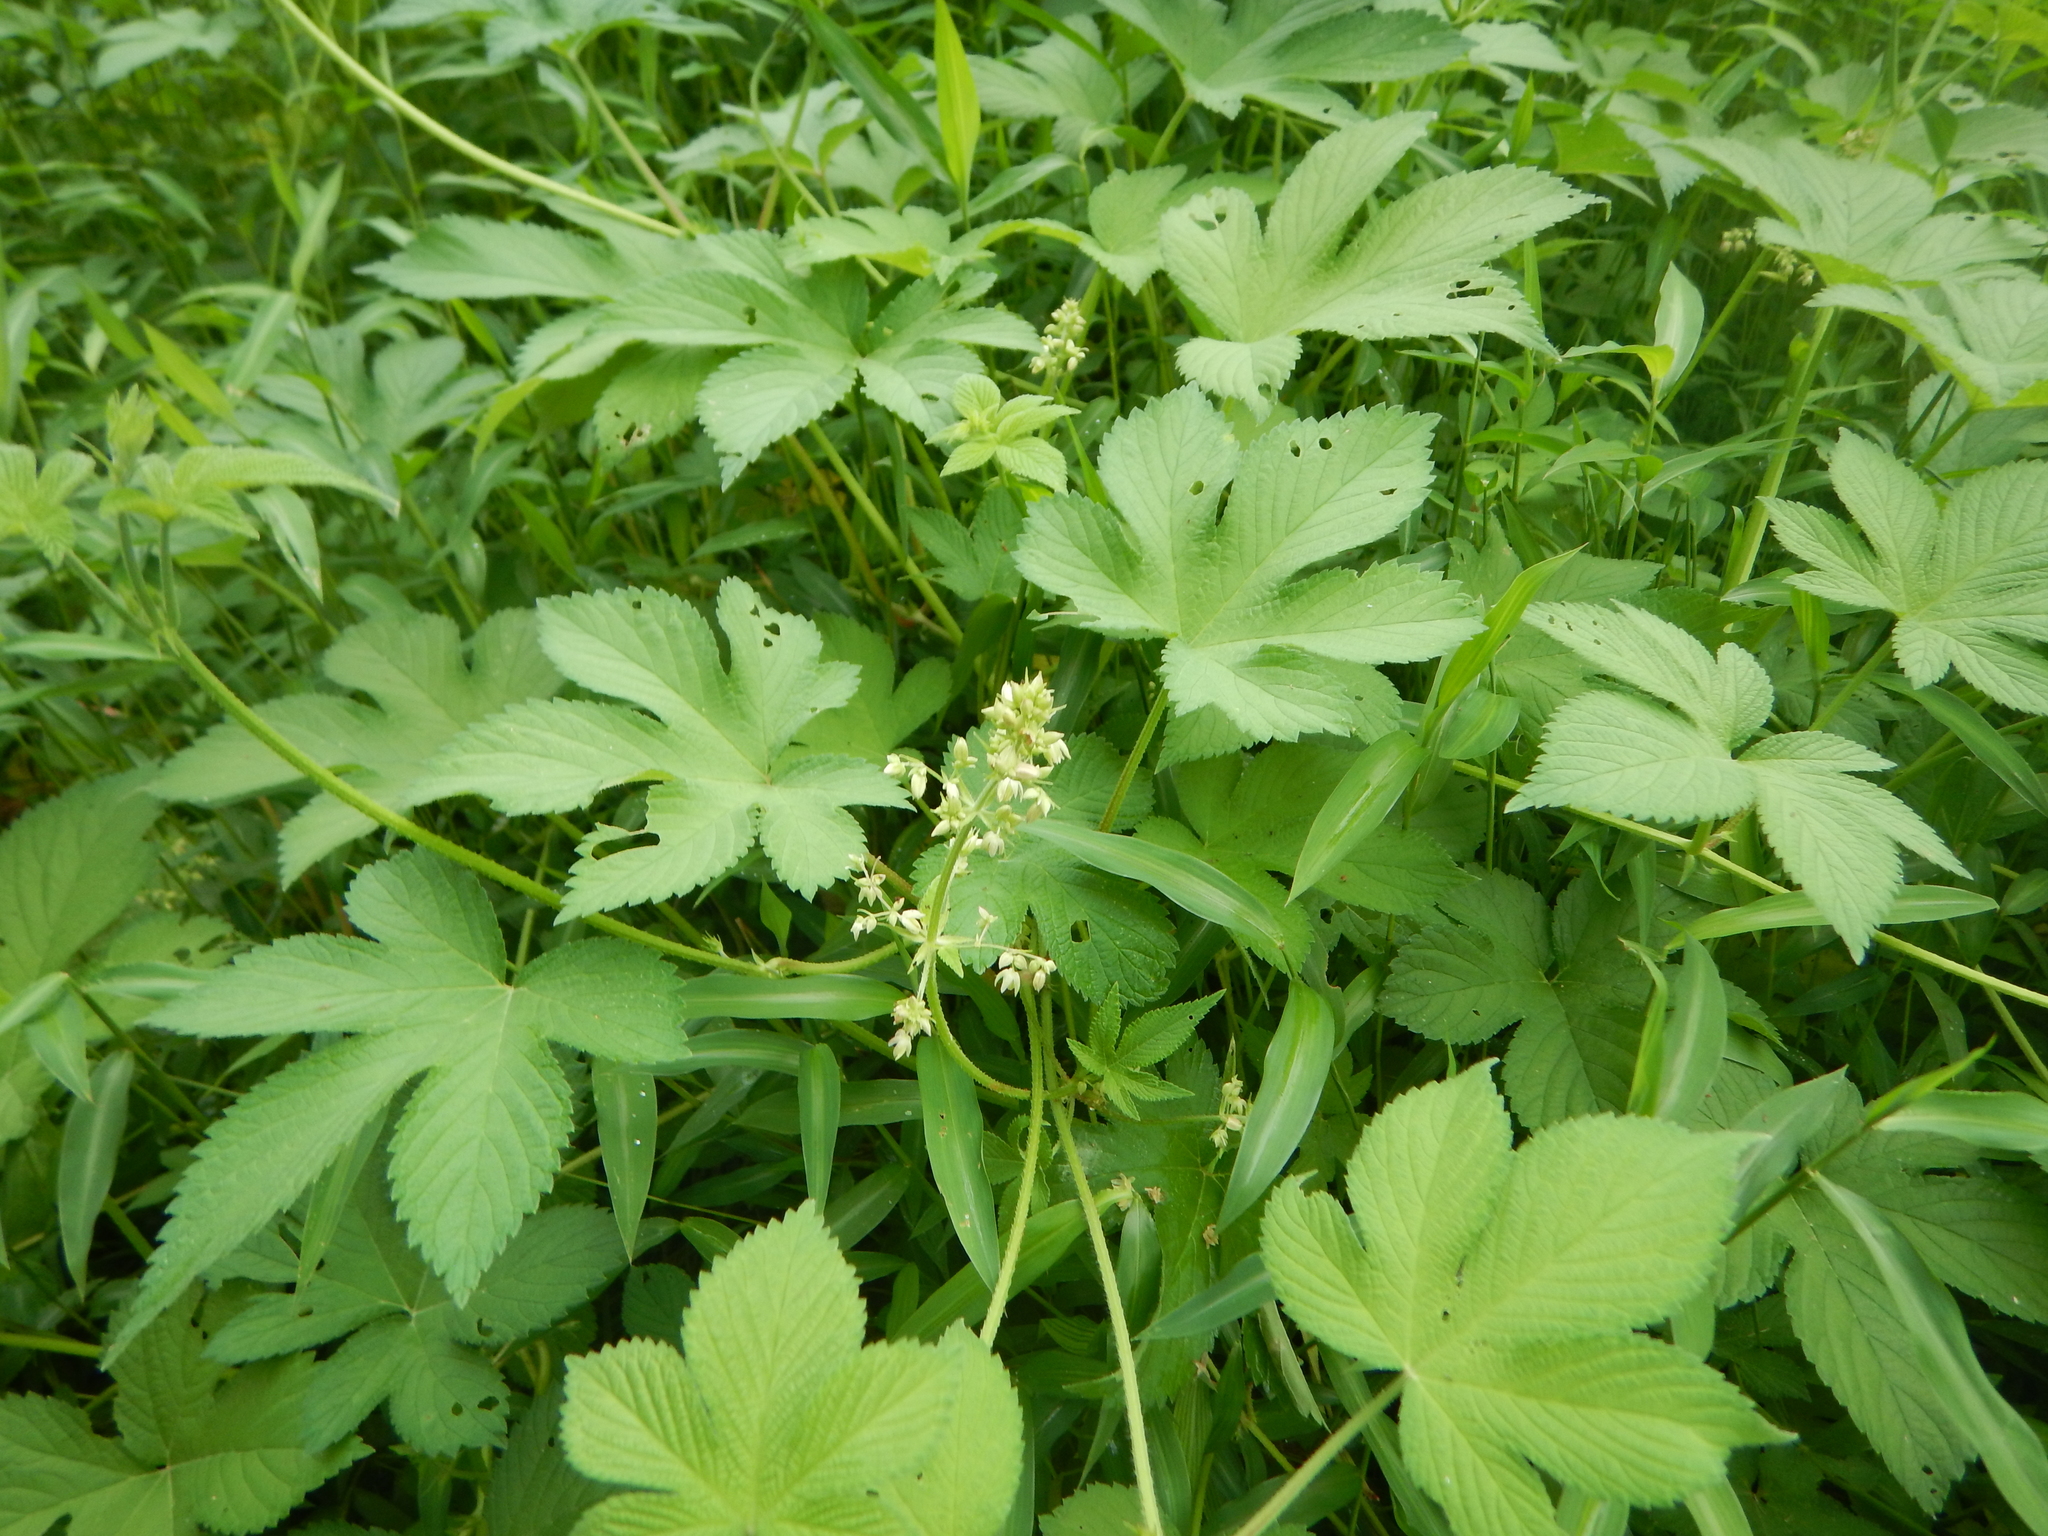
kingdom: Plantae
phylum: Tracheophyta
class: Magnoliopsida
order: Rosales
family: Cannabaceae
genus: Humulus
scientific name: Humulus scandens
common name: Japanese hop
